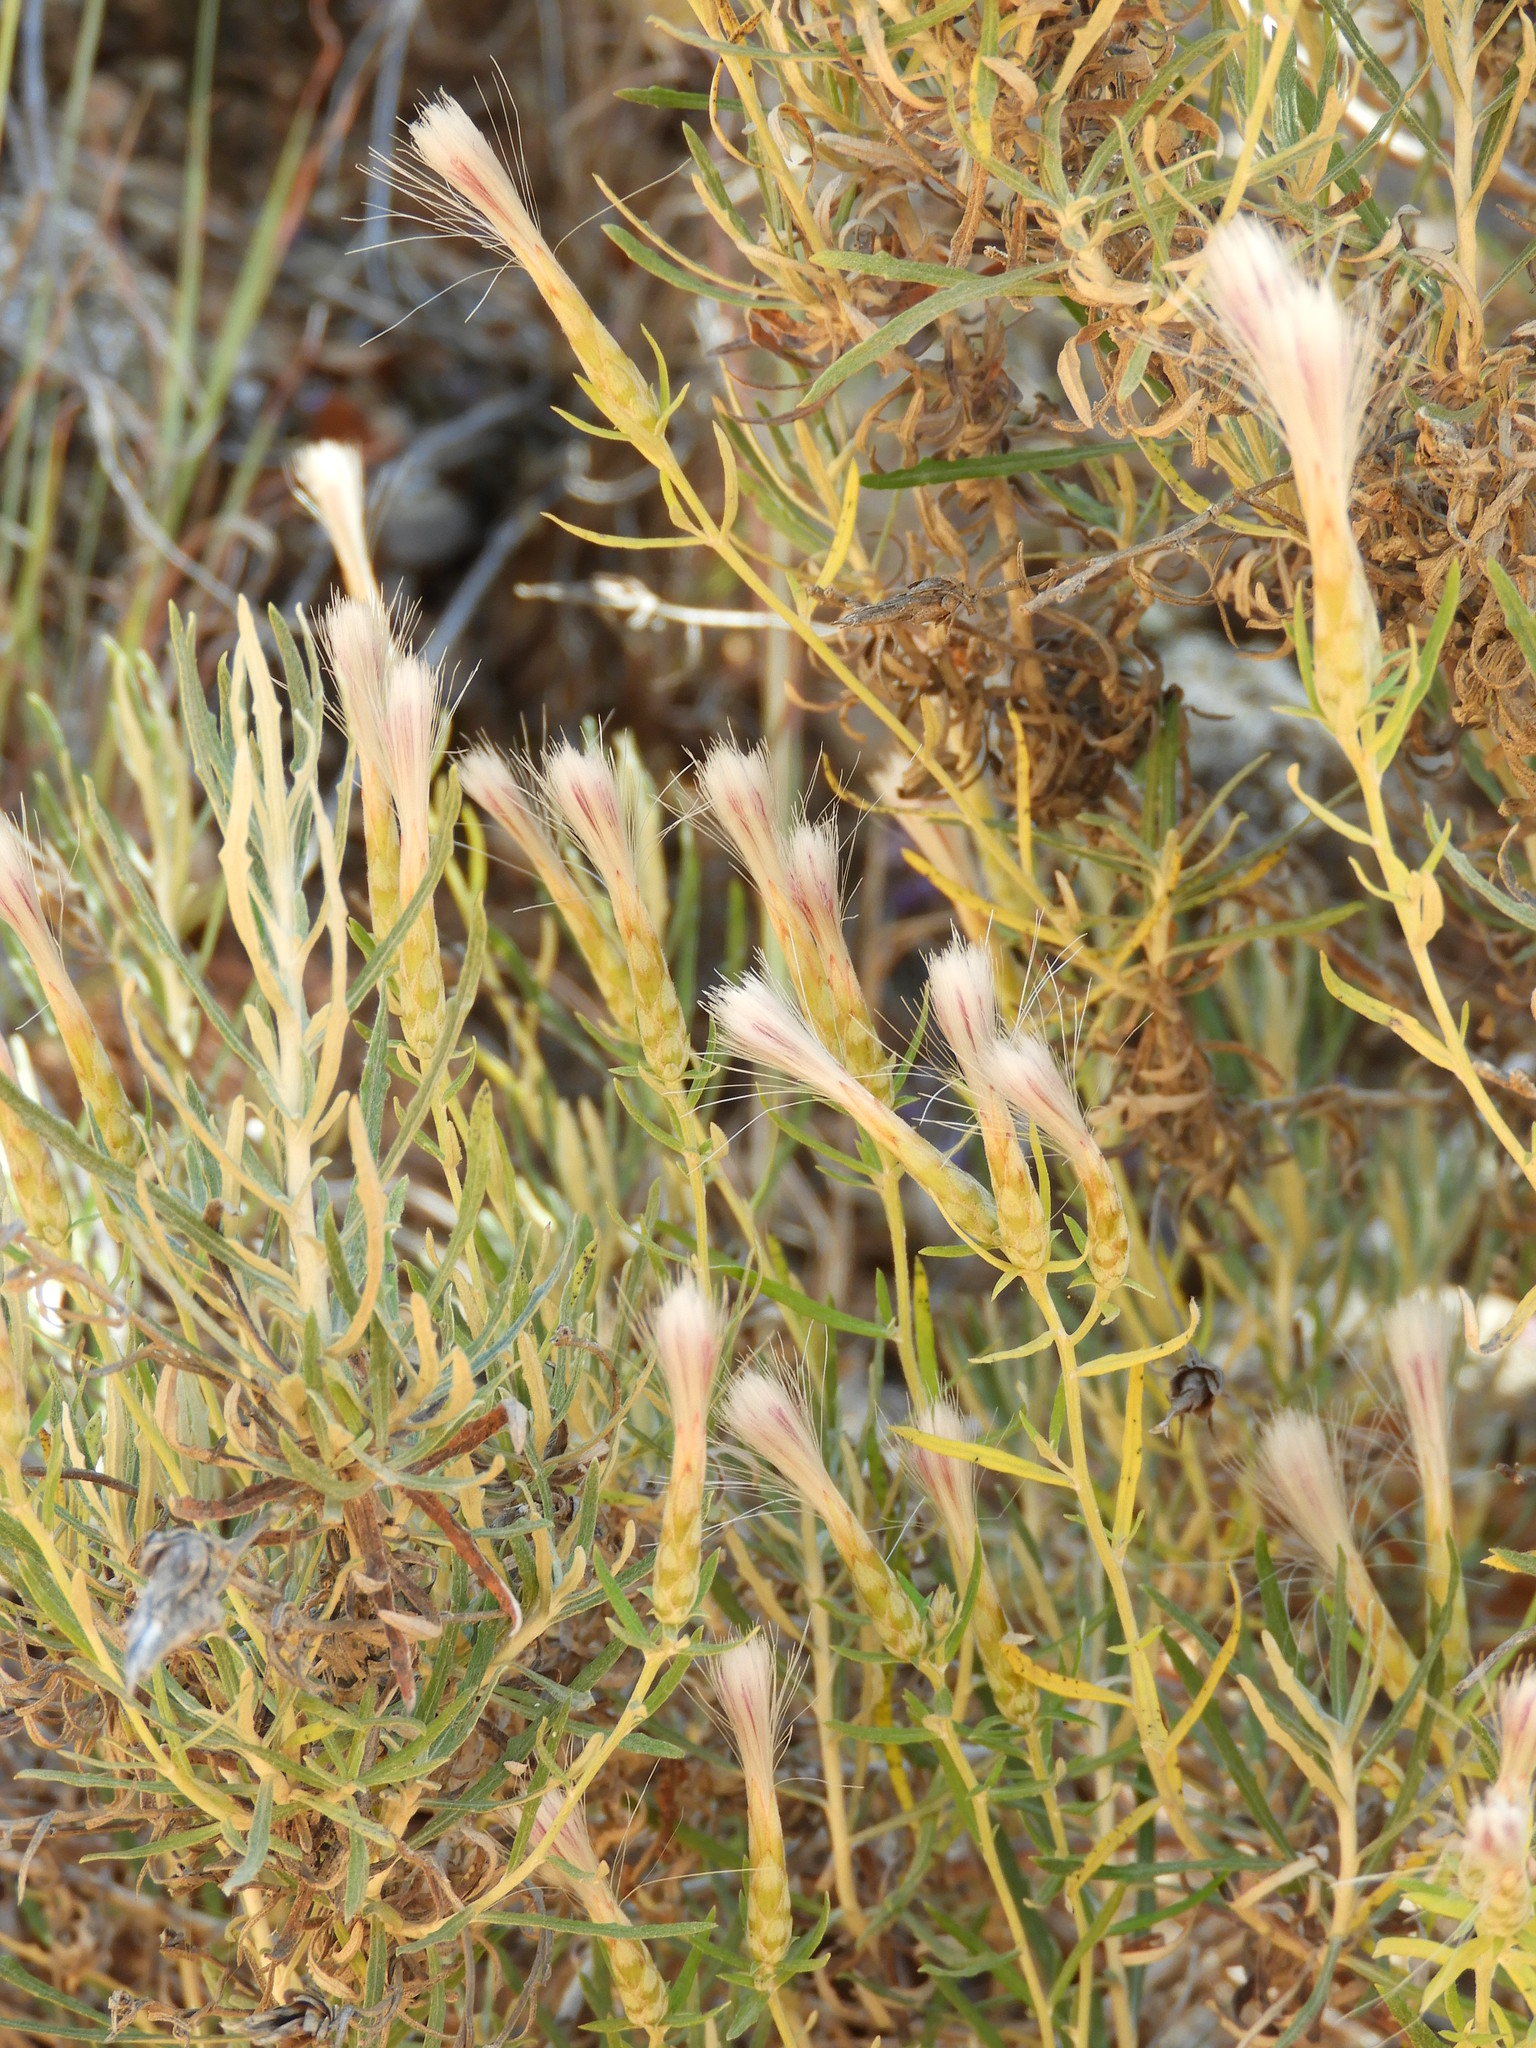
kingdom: Plantae
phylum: Tracheophyta
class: Magnoliopsida
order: Asterales
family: Asteraceae
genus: Staehelina
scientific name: Staehelina dubia
